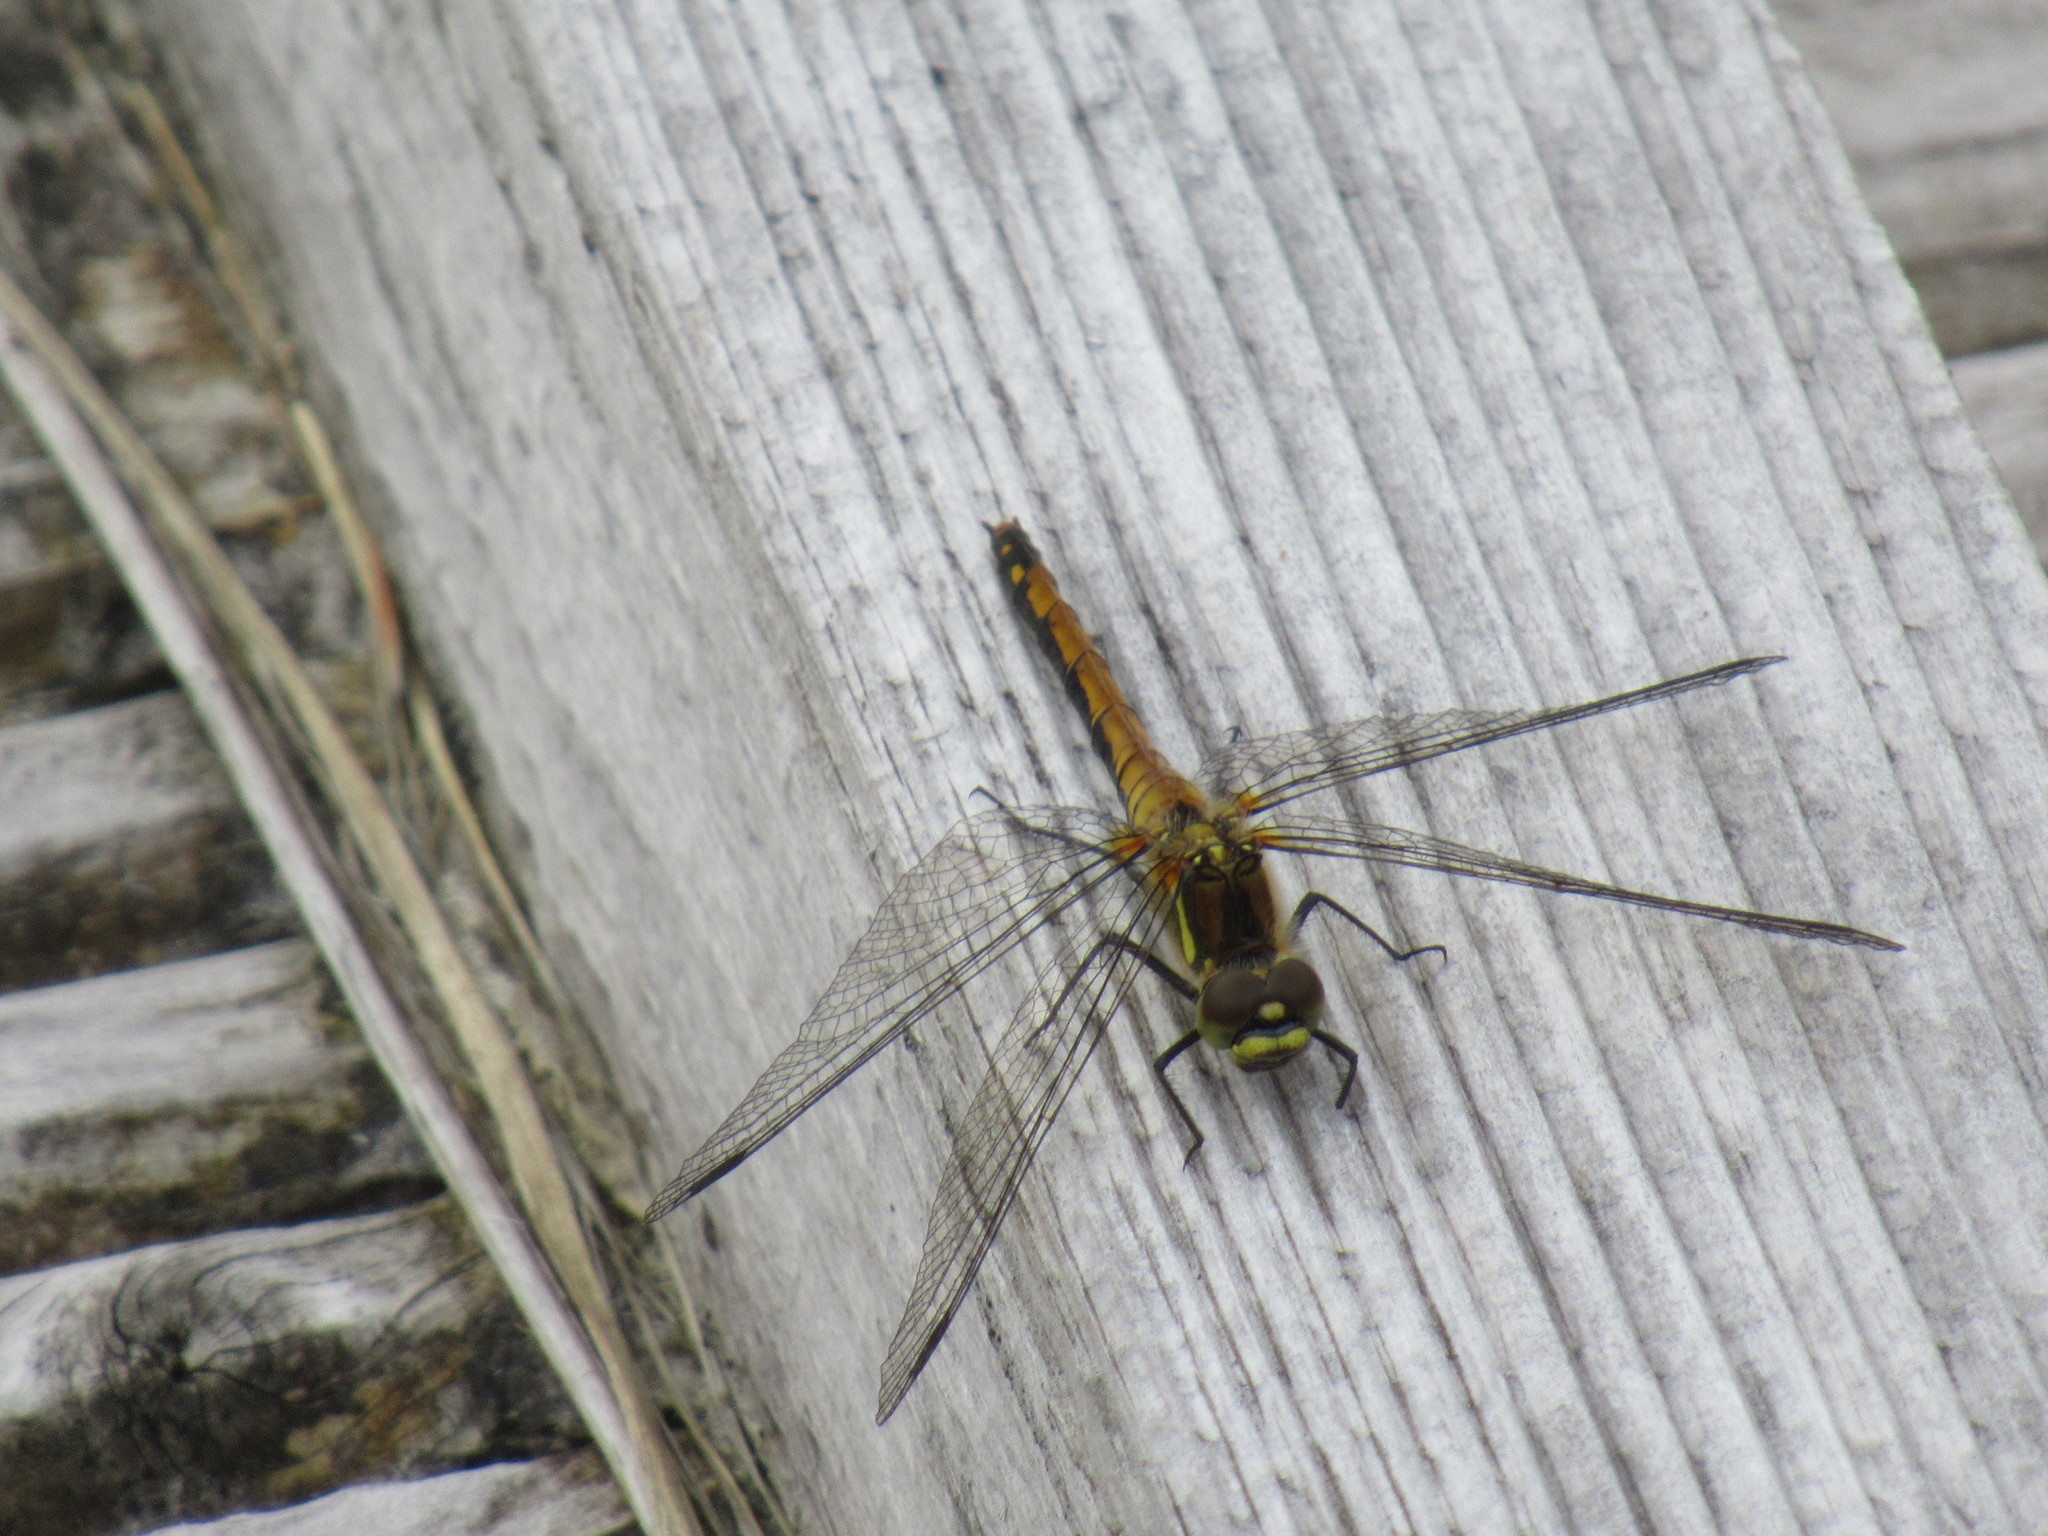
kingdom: Animalia
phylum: Arthropoda
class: Insecta
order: Odonata
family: Libellulidae
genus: Sympetrum
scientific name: Sympetrum danae
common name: Black darter
